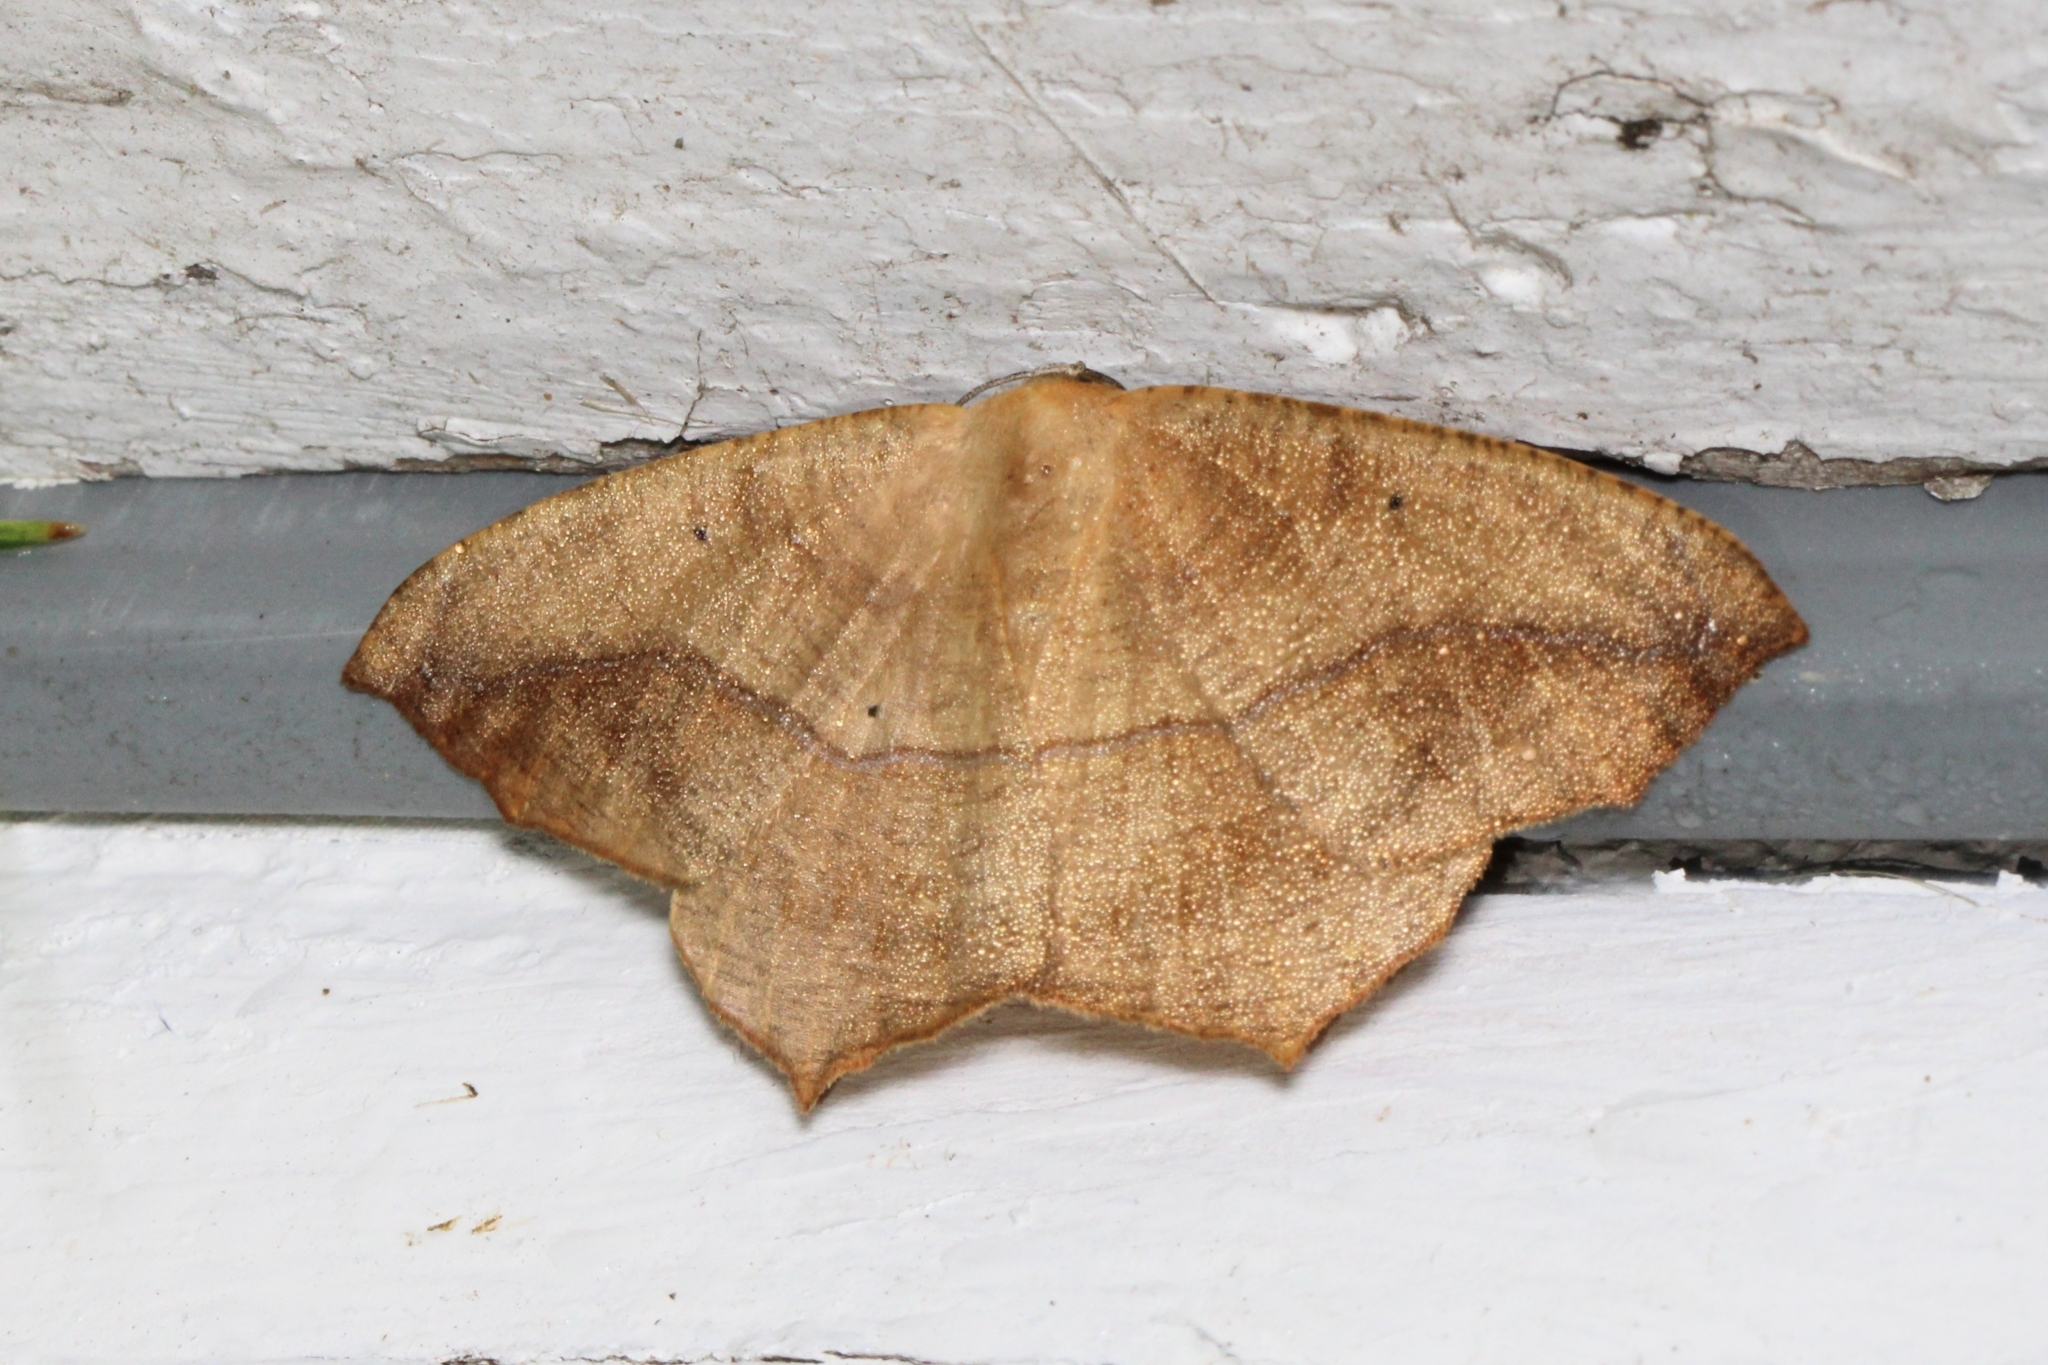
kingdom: Animalia
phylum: Arthropoda
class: Insecta
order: Lepidoptera
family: Geometridae
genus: Prochoerodes
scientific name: Prochoerodes lineola
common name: Large maple spanworm
